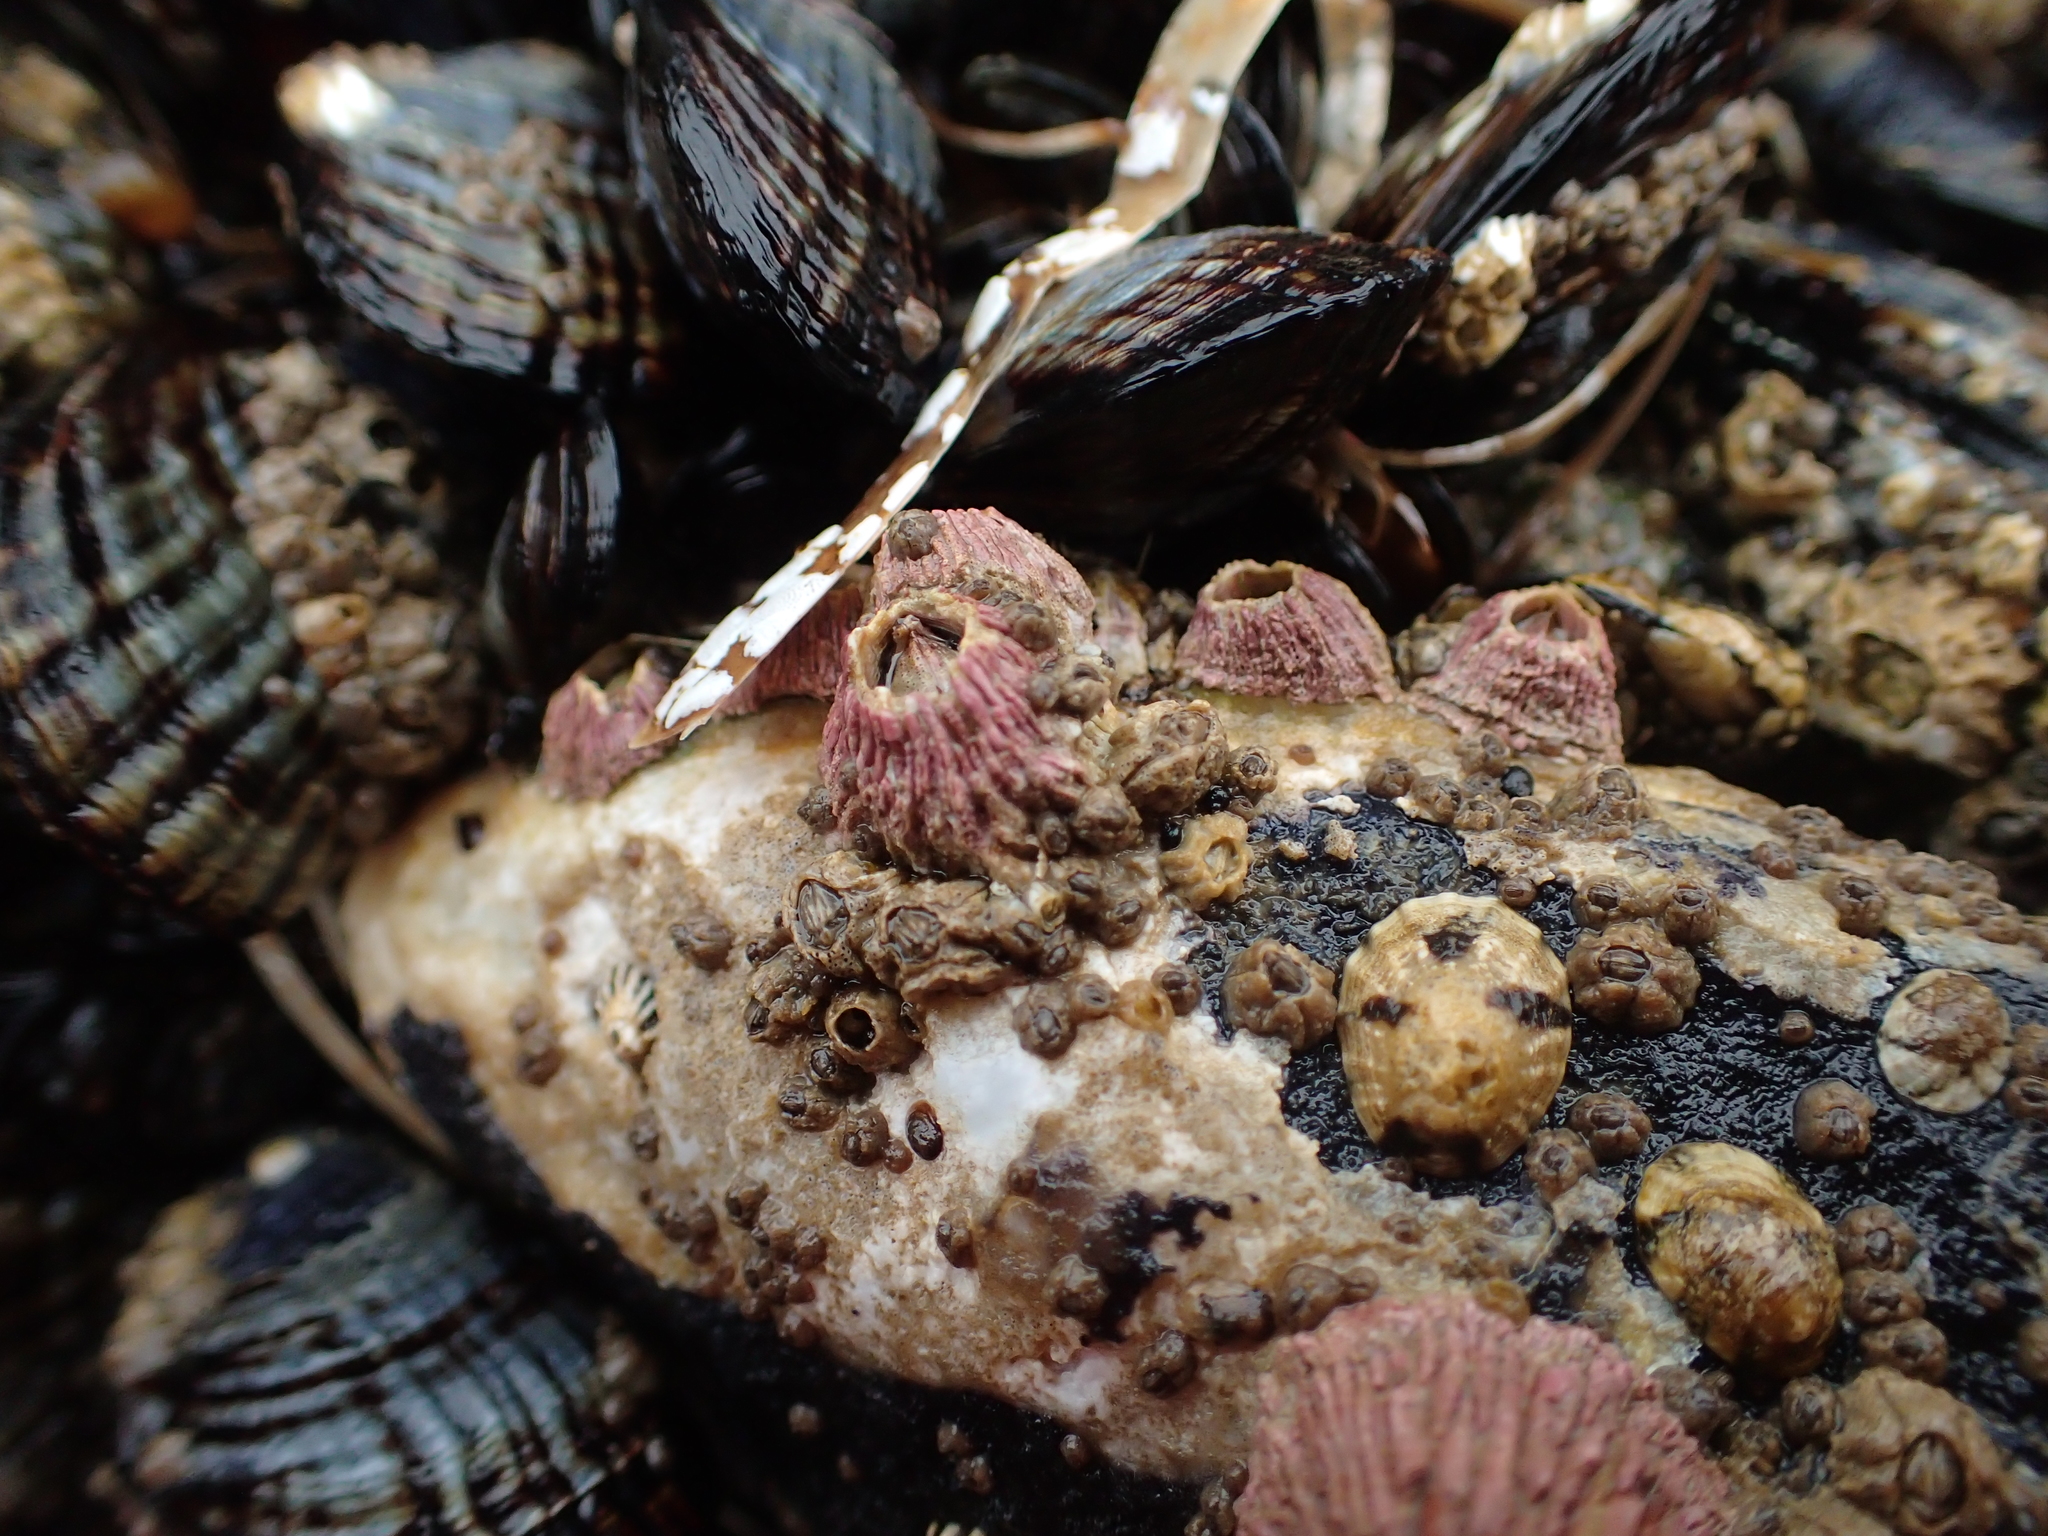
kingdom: Animalia
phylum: Arthropoda
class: Maxillopoda
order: Sessilia
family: Tetraclitidae
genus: Tetraclita
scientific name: Tetraclita rubescens
